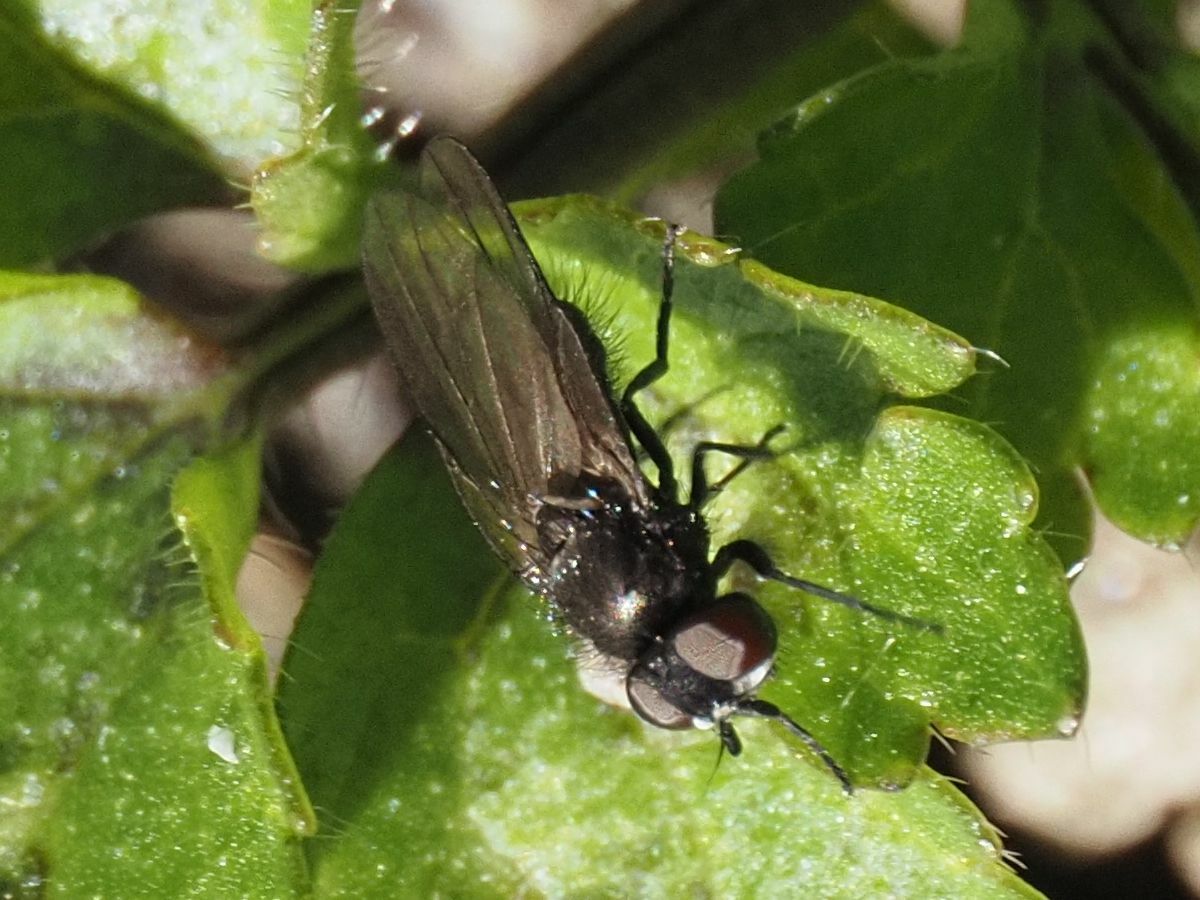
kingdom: Animalia
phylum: Arthropoda
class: Insecta
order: Diptera
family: Lonchaeidae
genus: Earomyia
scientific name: Earomyia lonchaeoides
